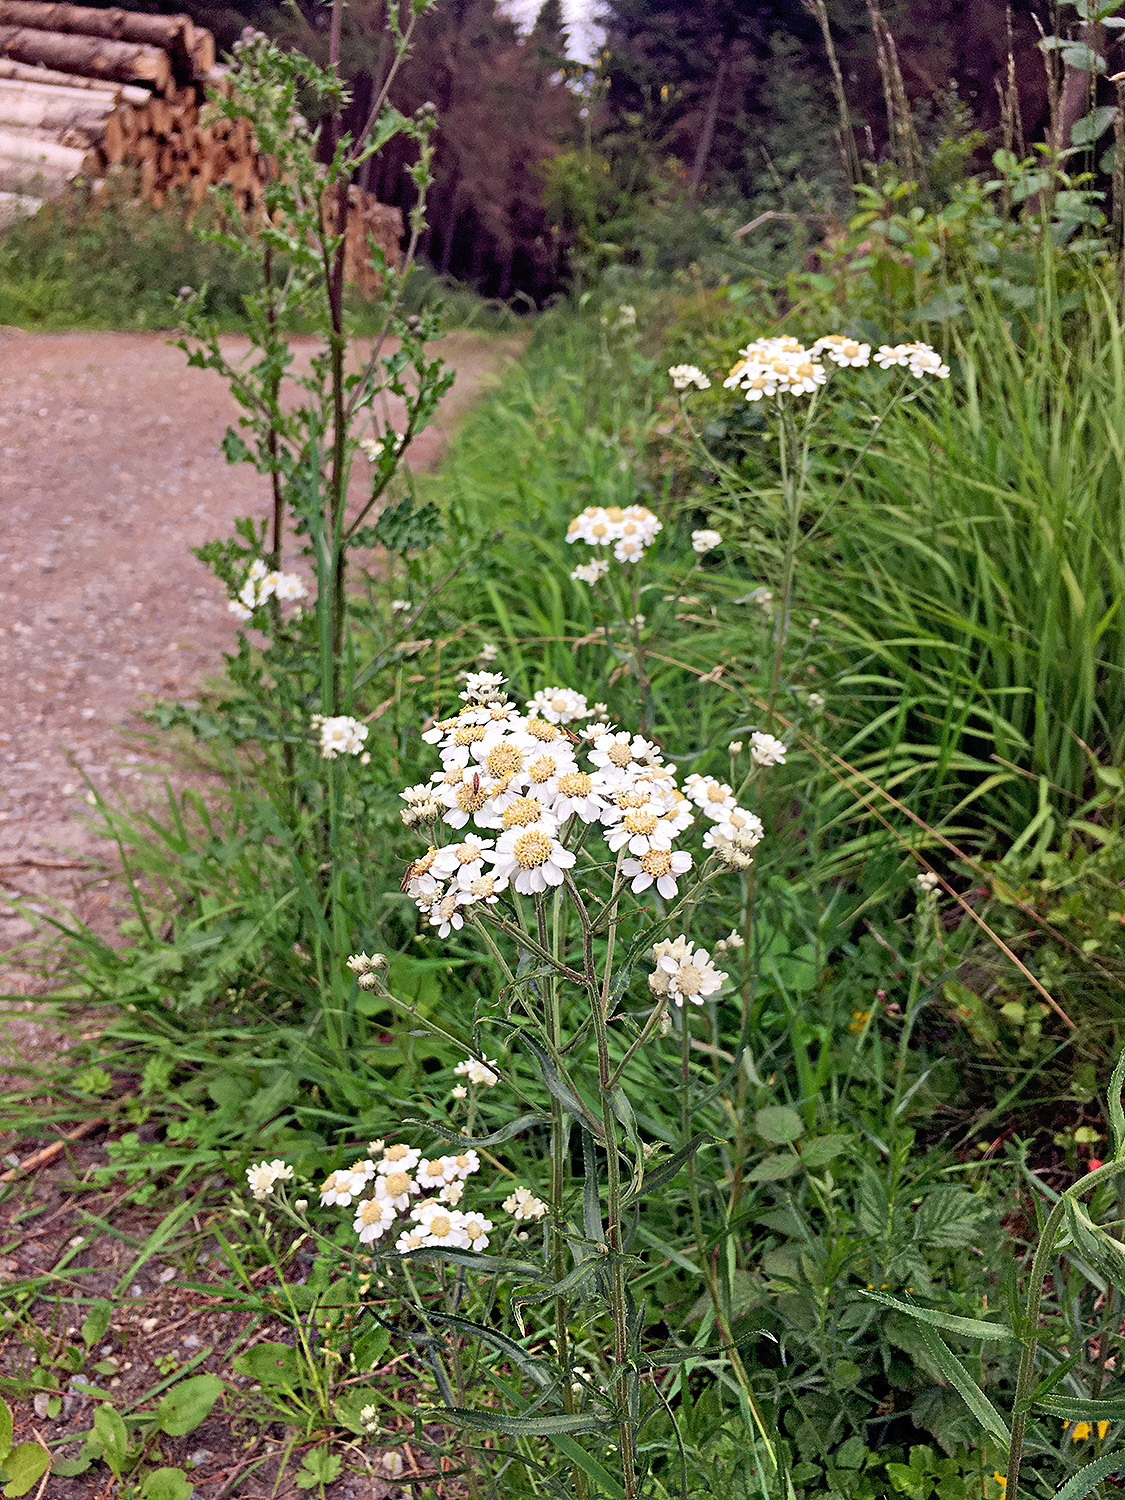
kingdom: Plantae
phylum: Tracheophyta
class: Magnoliopsida
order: Asterales
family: Asteraceae
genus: Achillea
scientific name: Achillea ptarmica
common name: Sneezeweed
